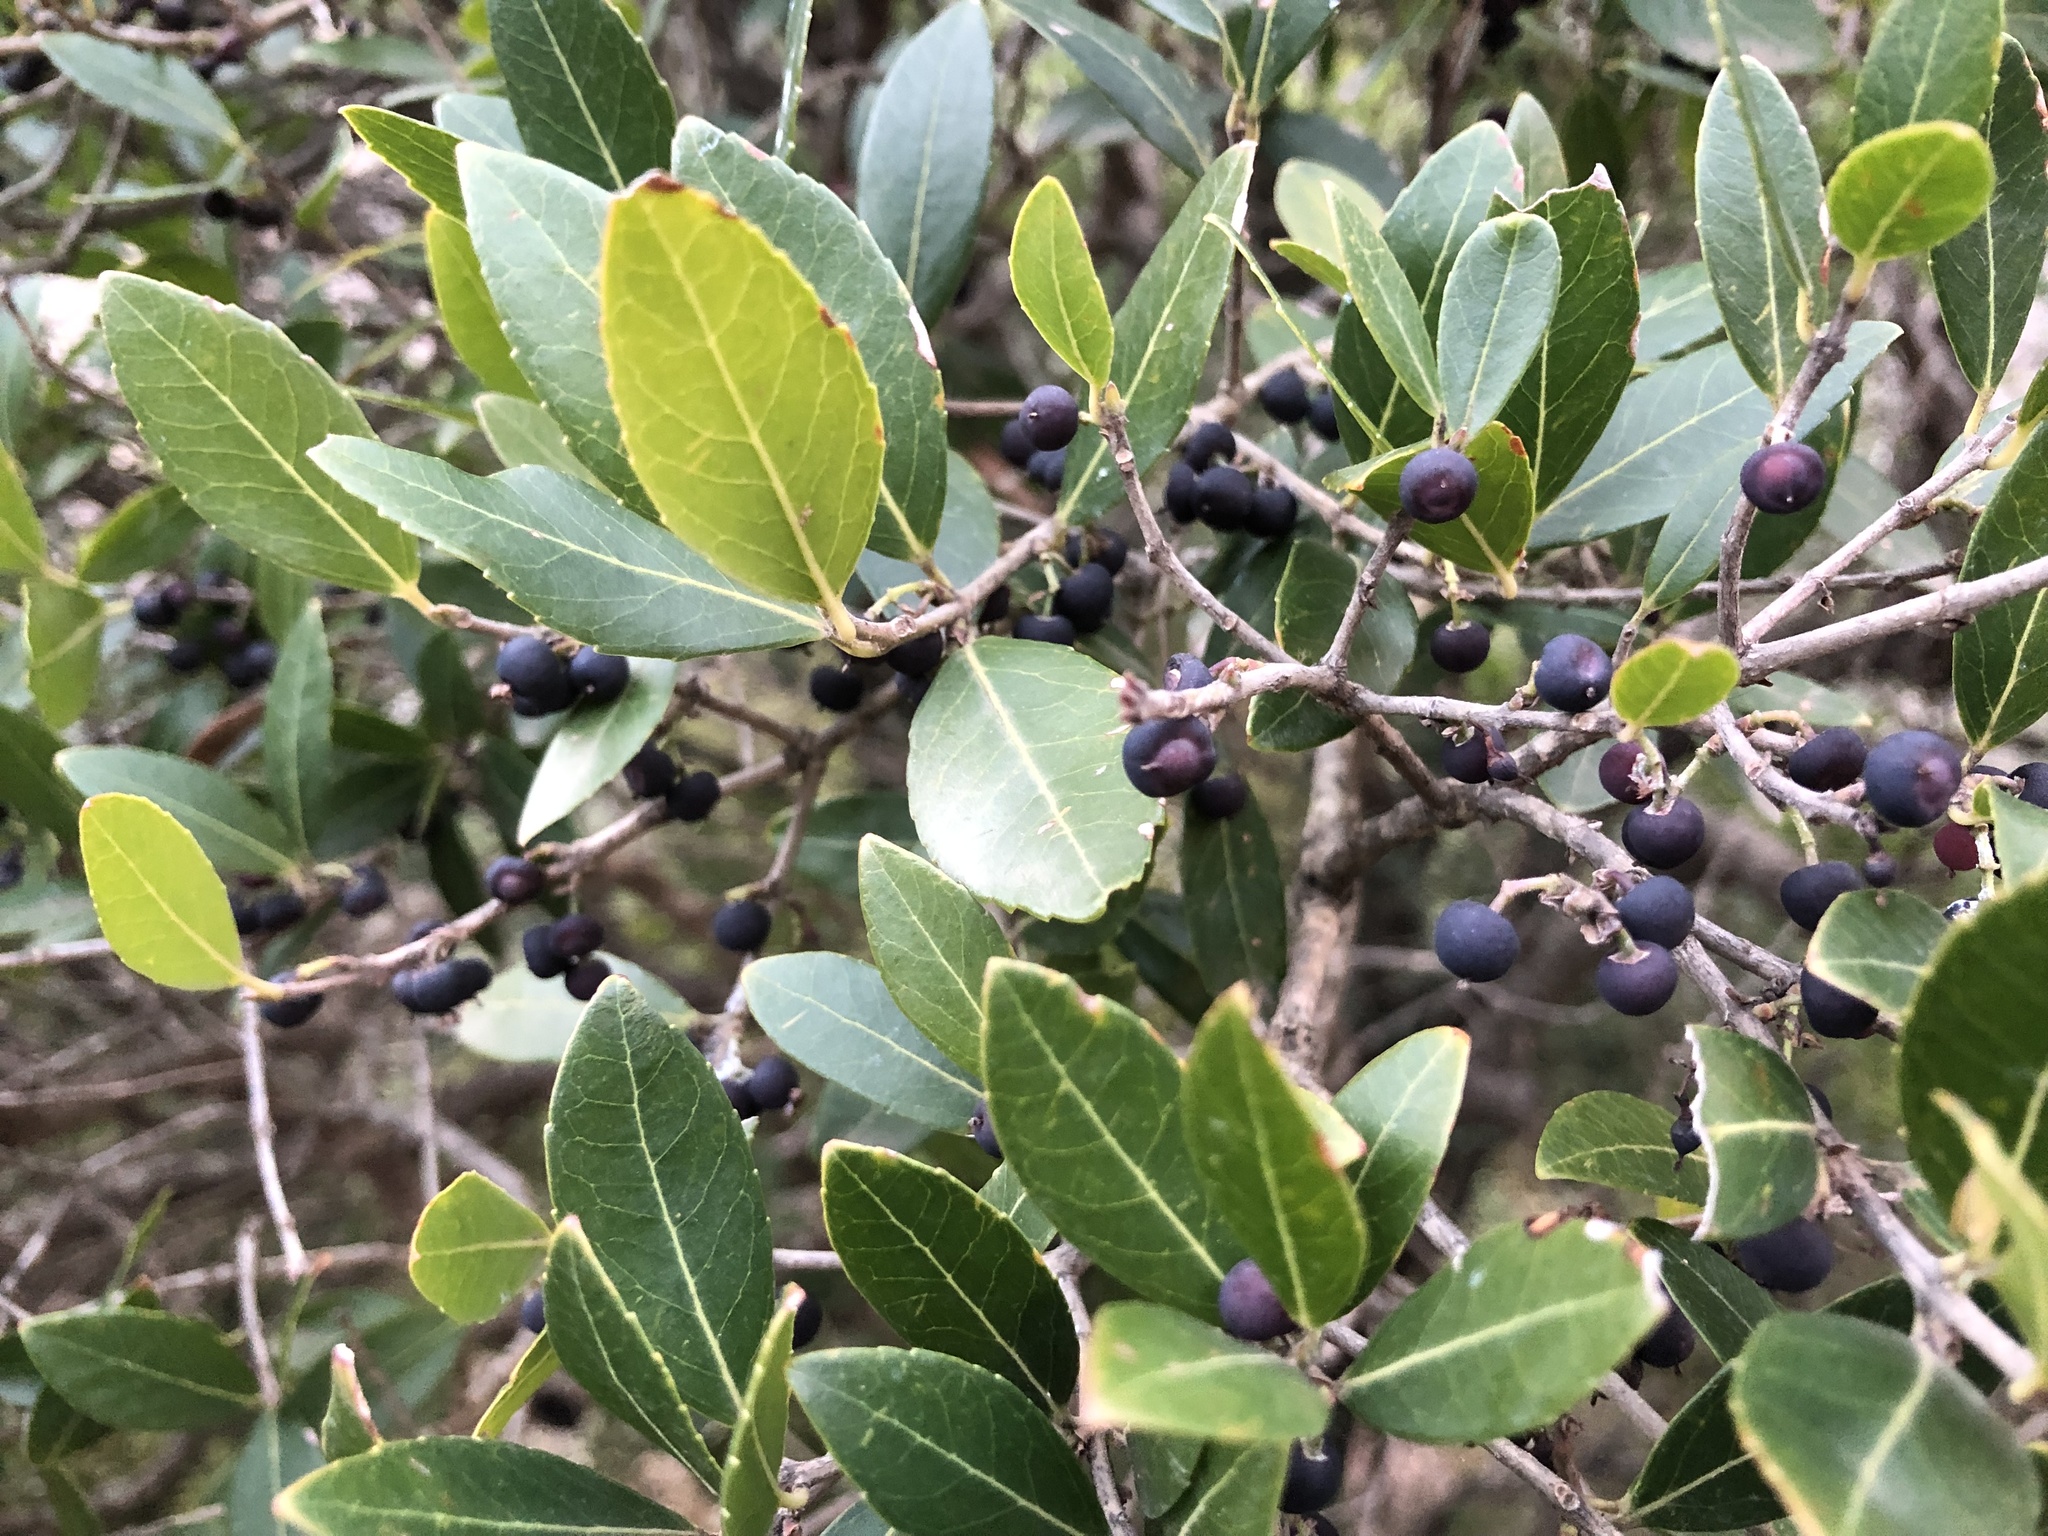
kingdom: Plantae
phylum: Tracheophyta
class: Magnoliopsida
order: Lamiales
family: Oleaceae
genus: Phillyrea
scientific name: Phillyrea latifolia
